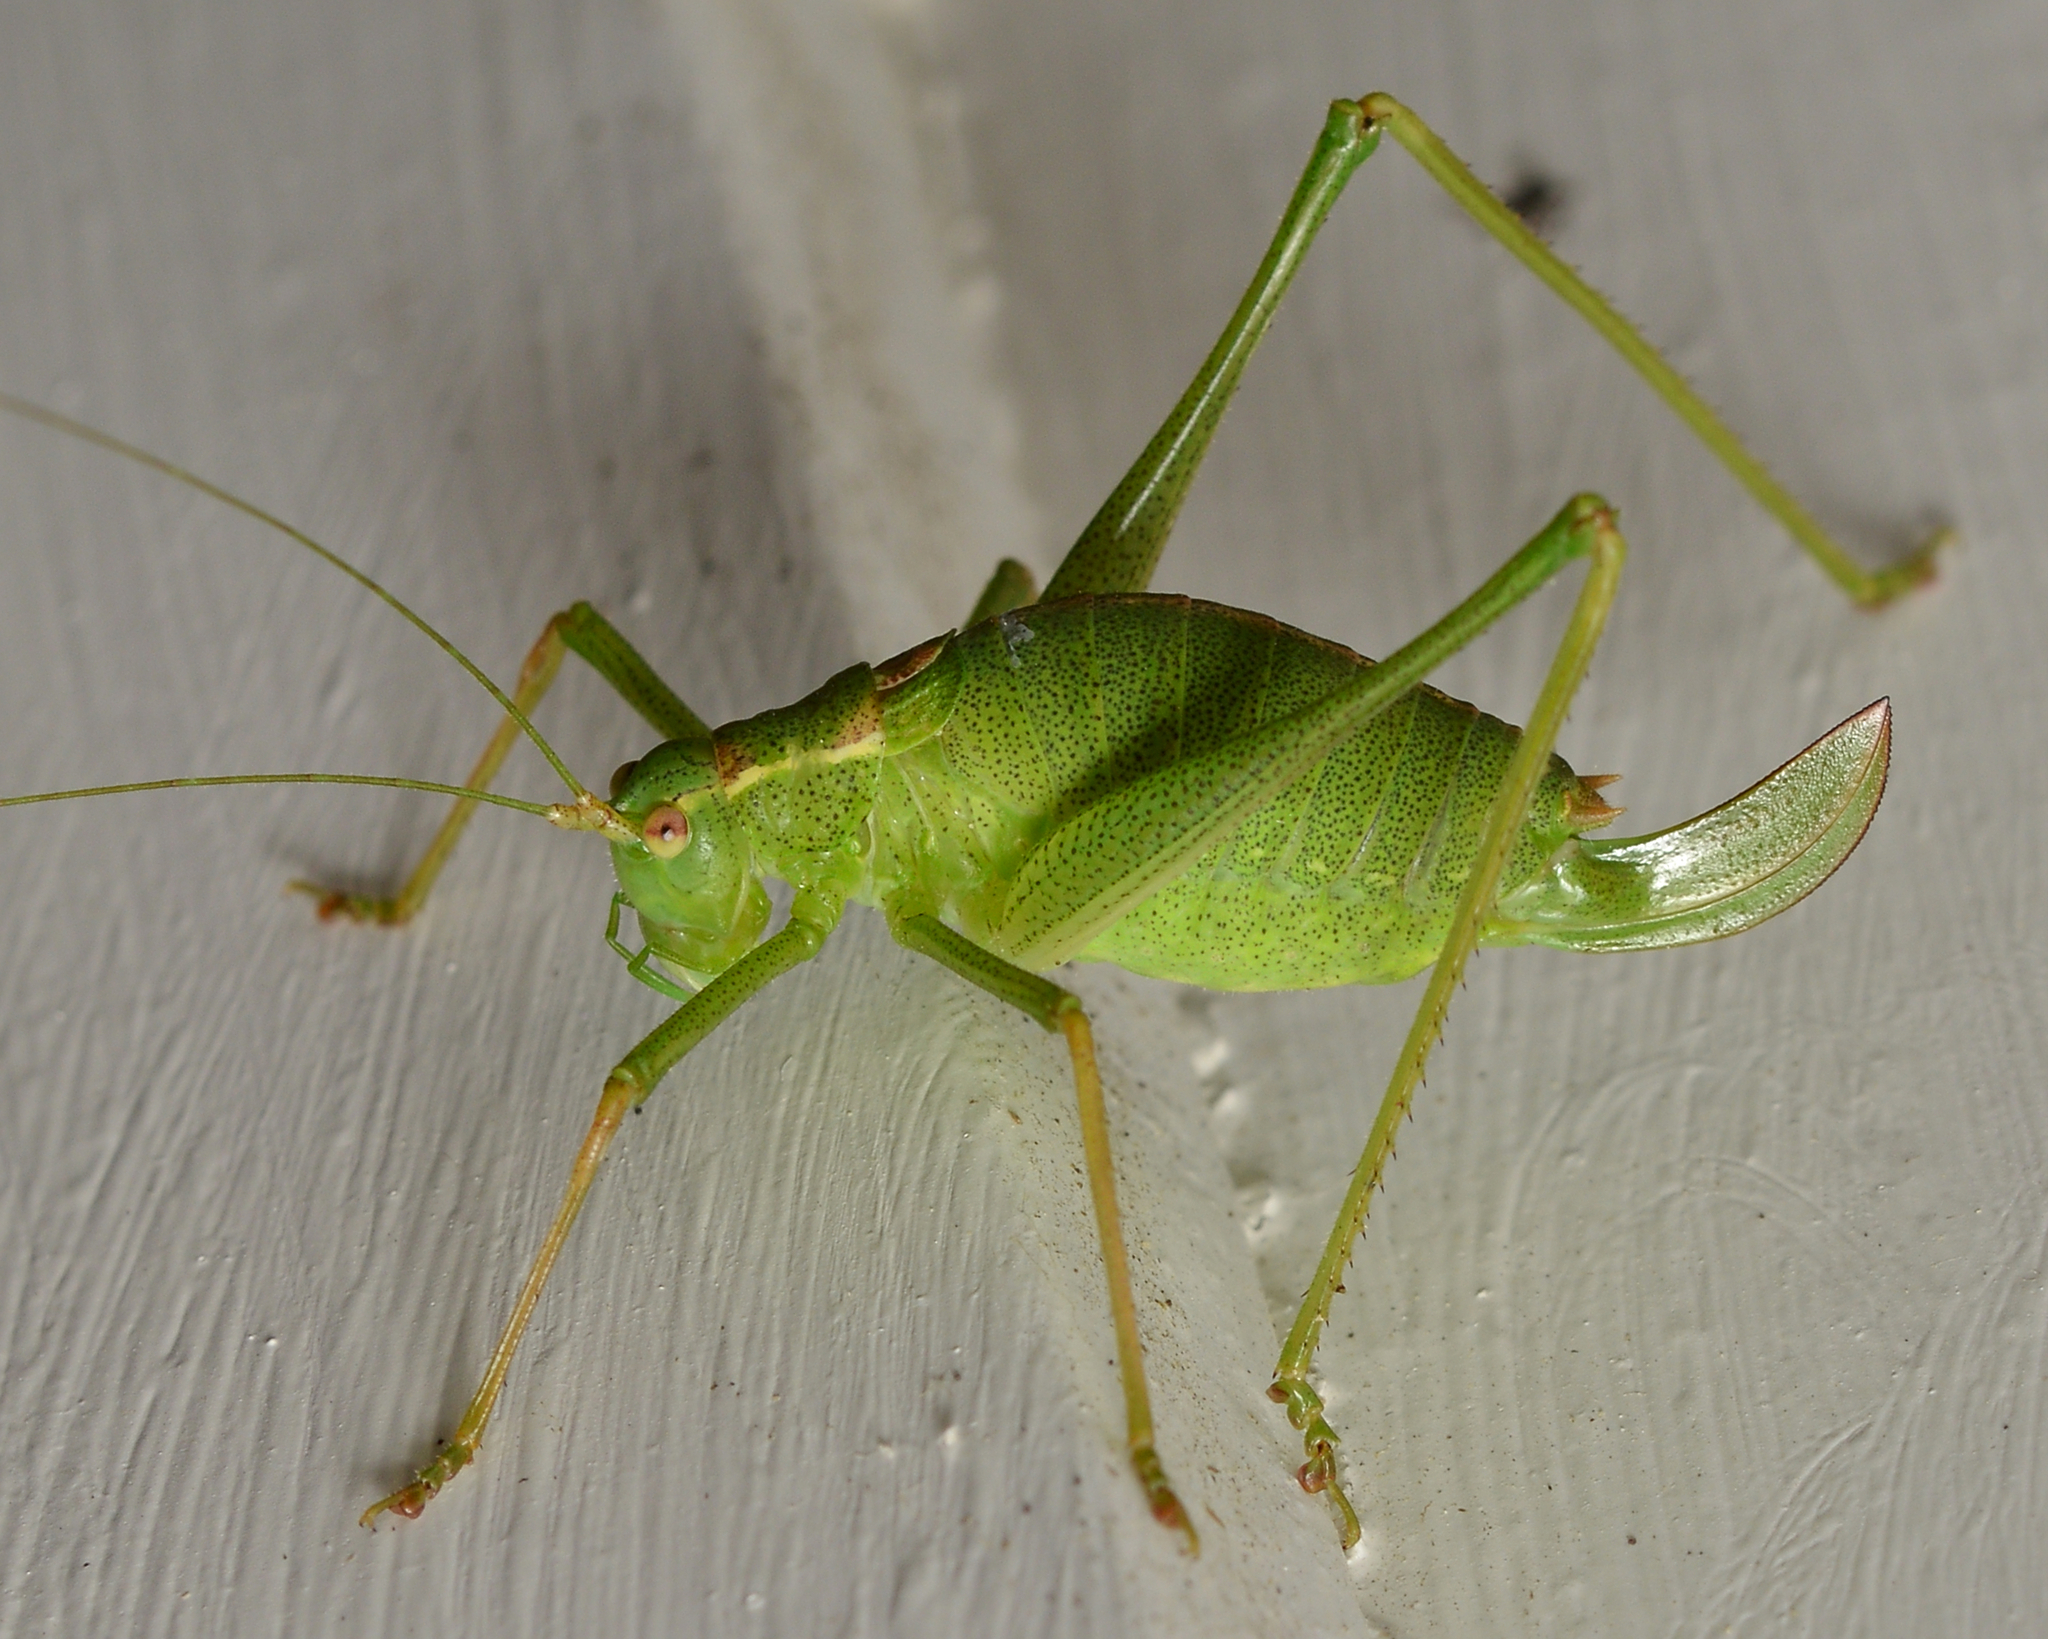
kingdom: Animalia
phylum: Arthropoda
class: Insecta
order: Orthoptera
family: Tettigoniidae
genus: Leptophyes
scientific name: Leptophyes punctatissima
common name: Speckled bush-cricket
